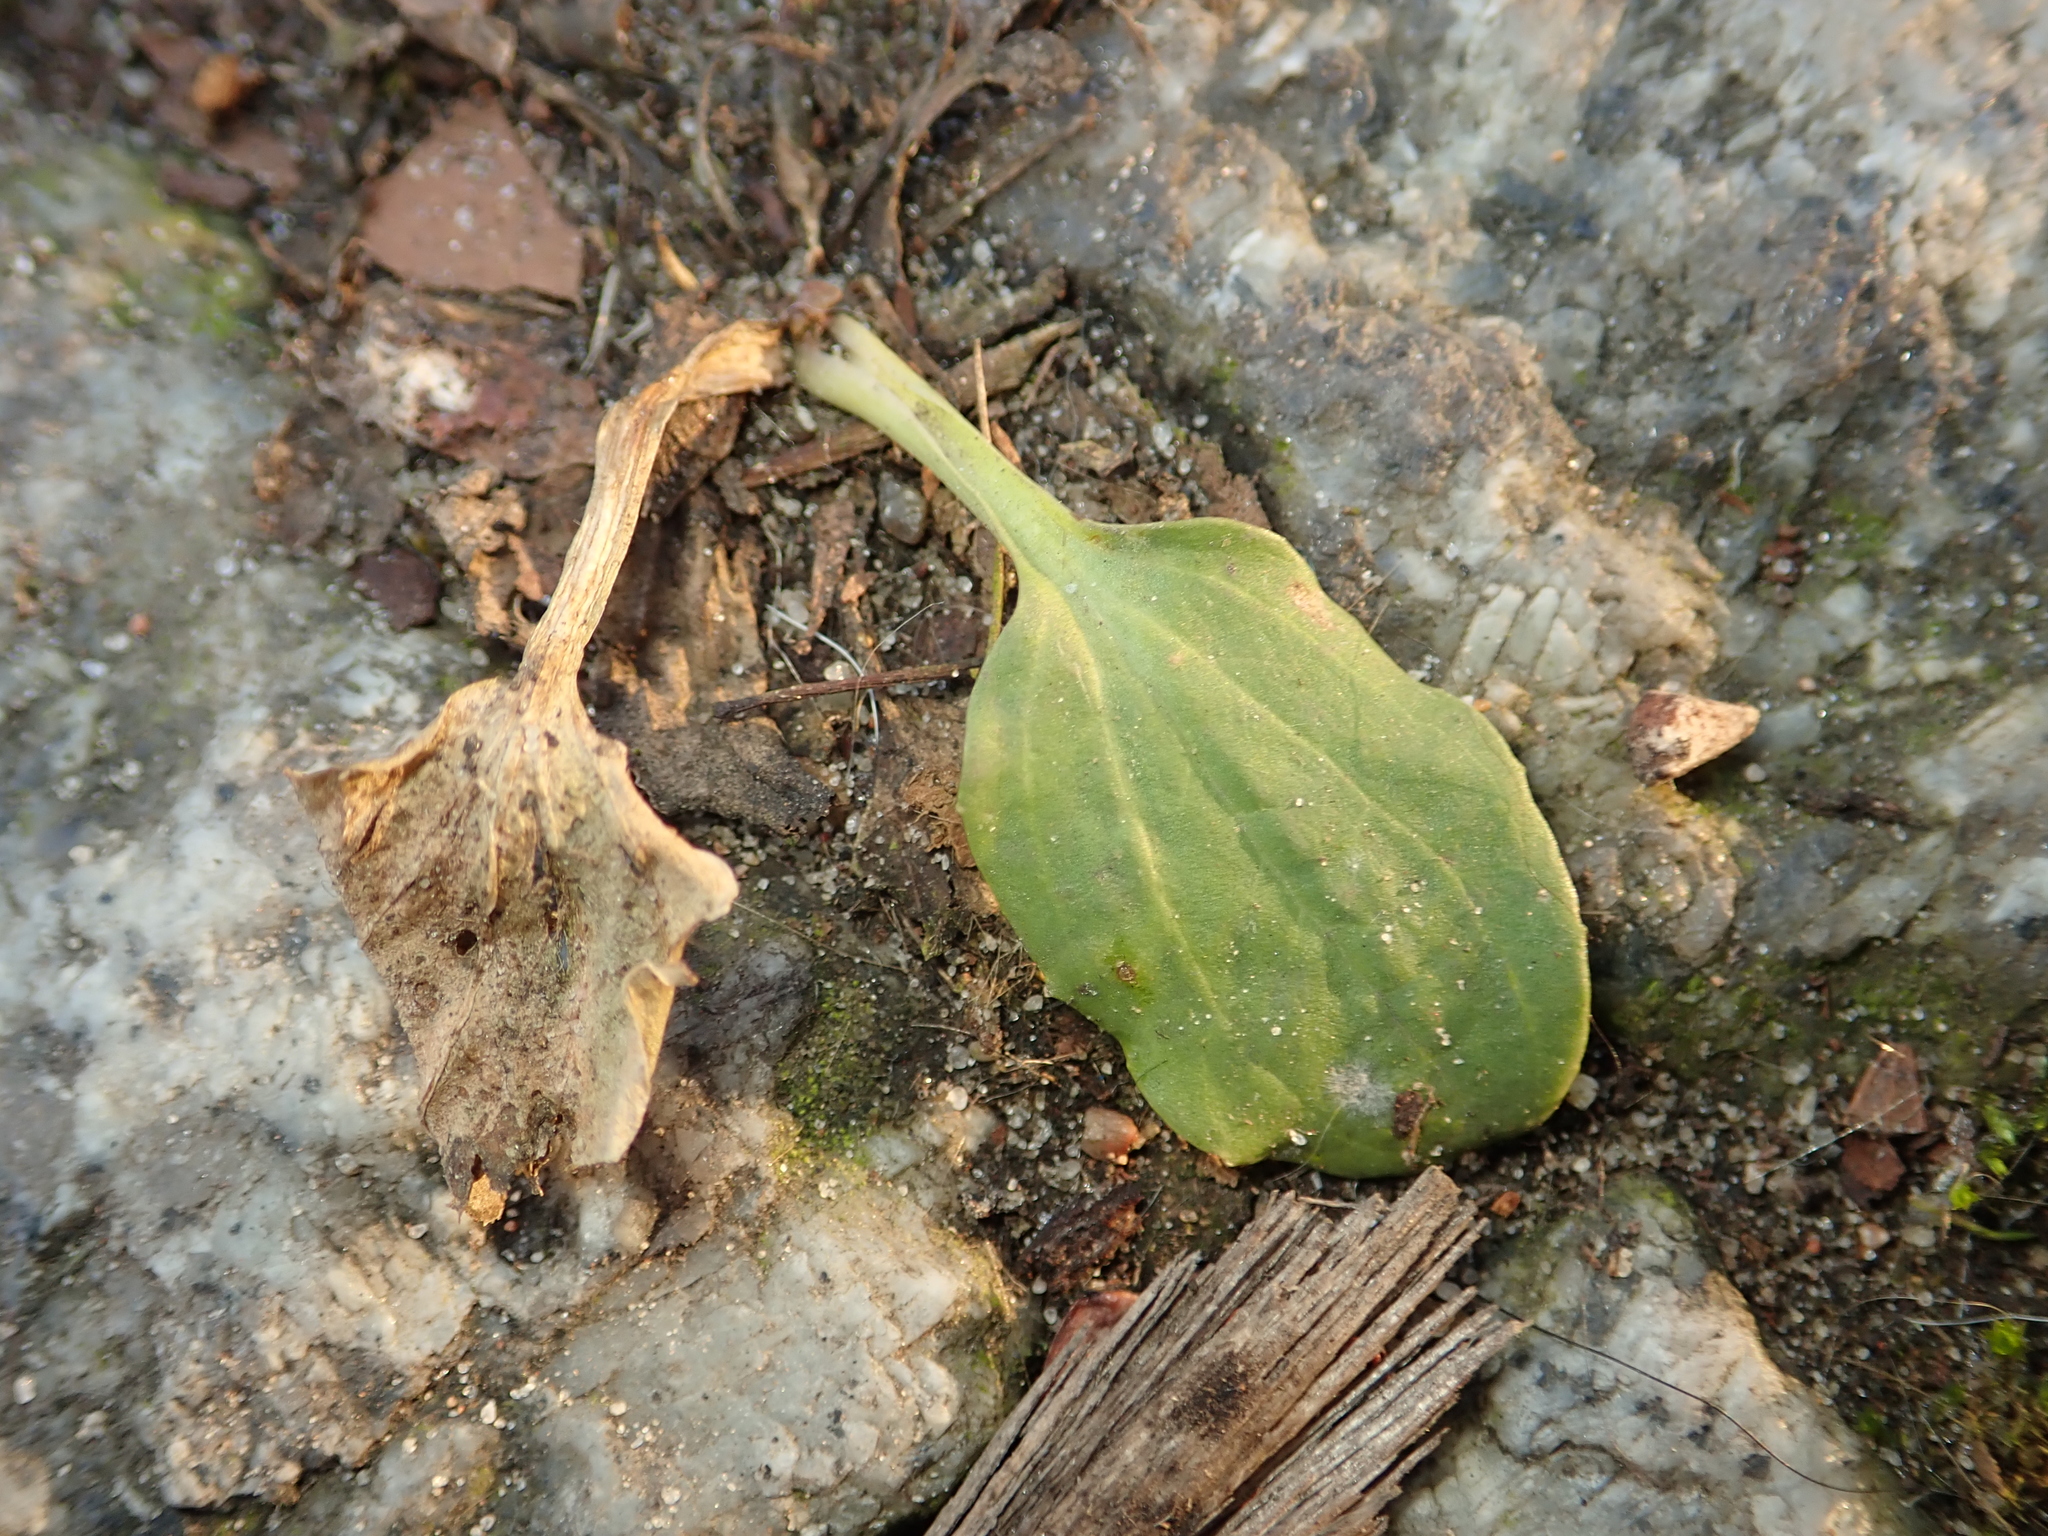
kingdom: Plantae
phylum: Tracheophyta
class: Magnoliopsida
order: Lamiales
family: Plantaginaceae
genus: Plantago
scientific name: Plantago major
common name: Common plantain
